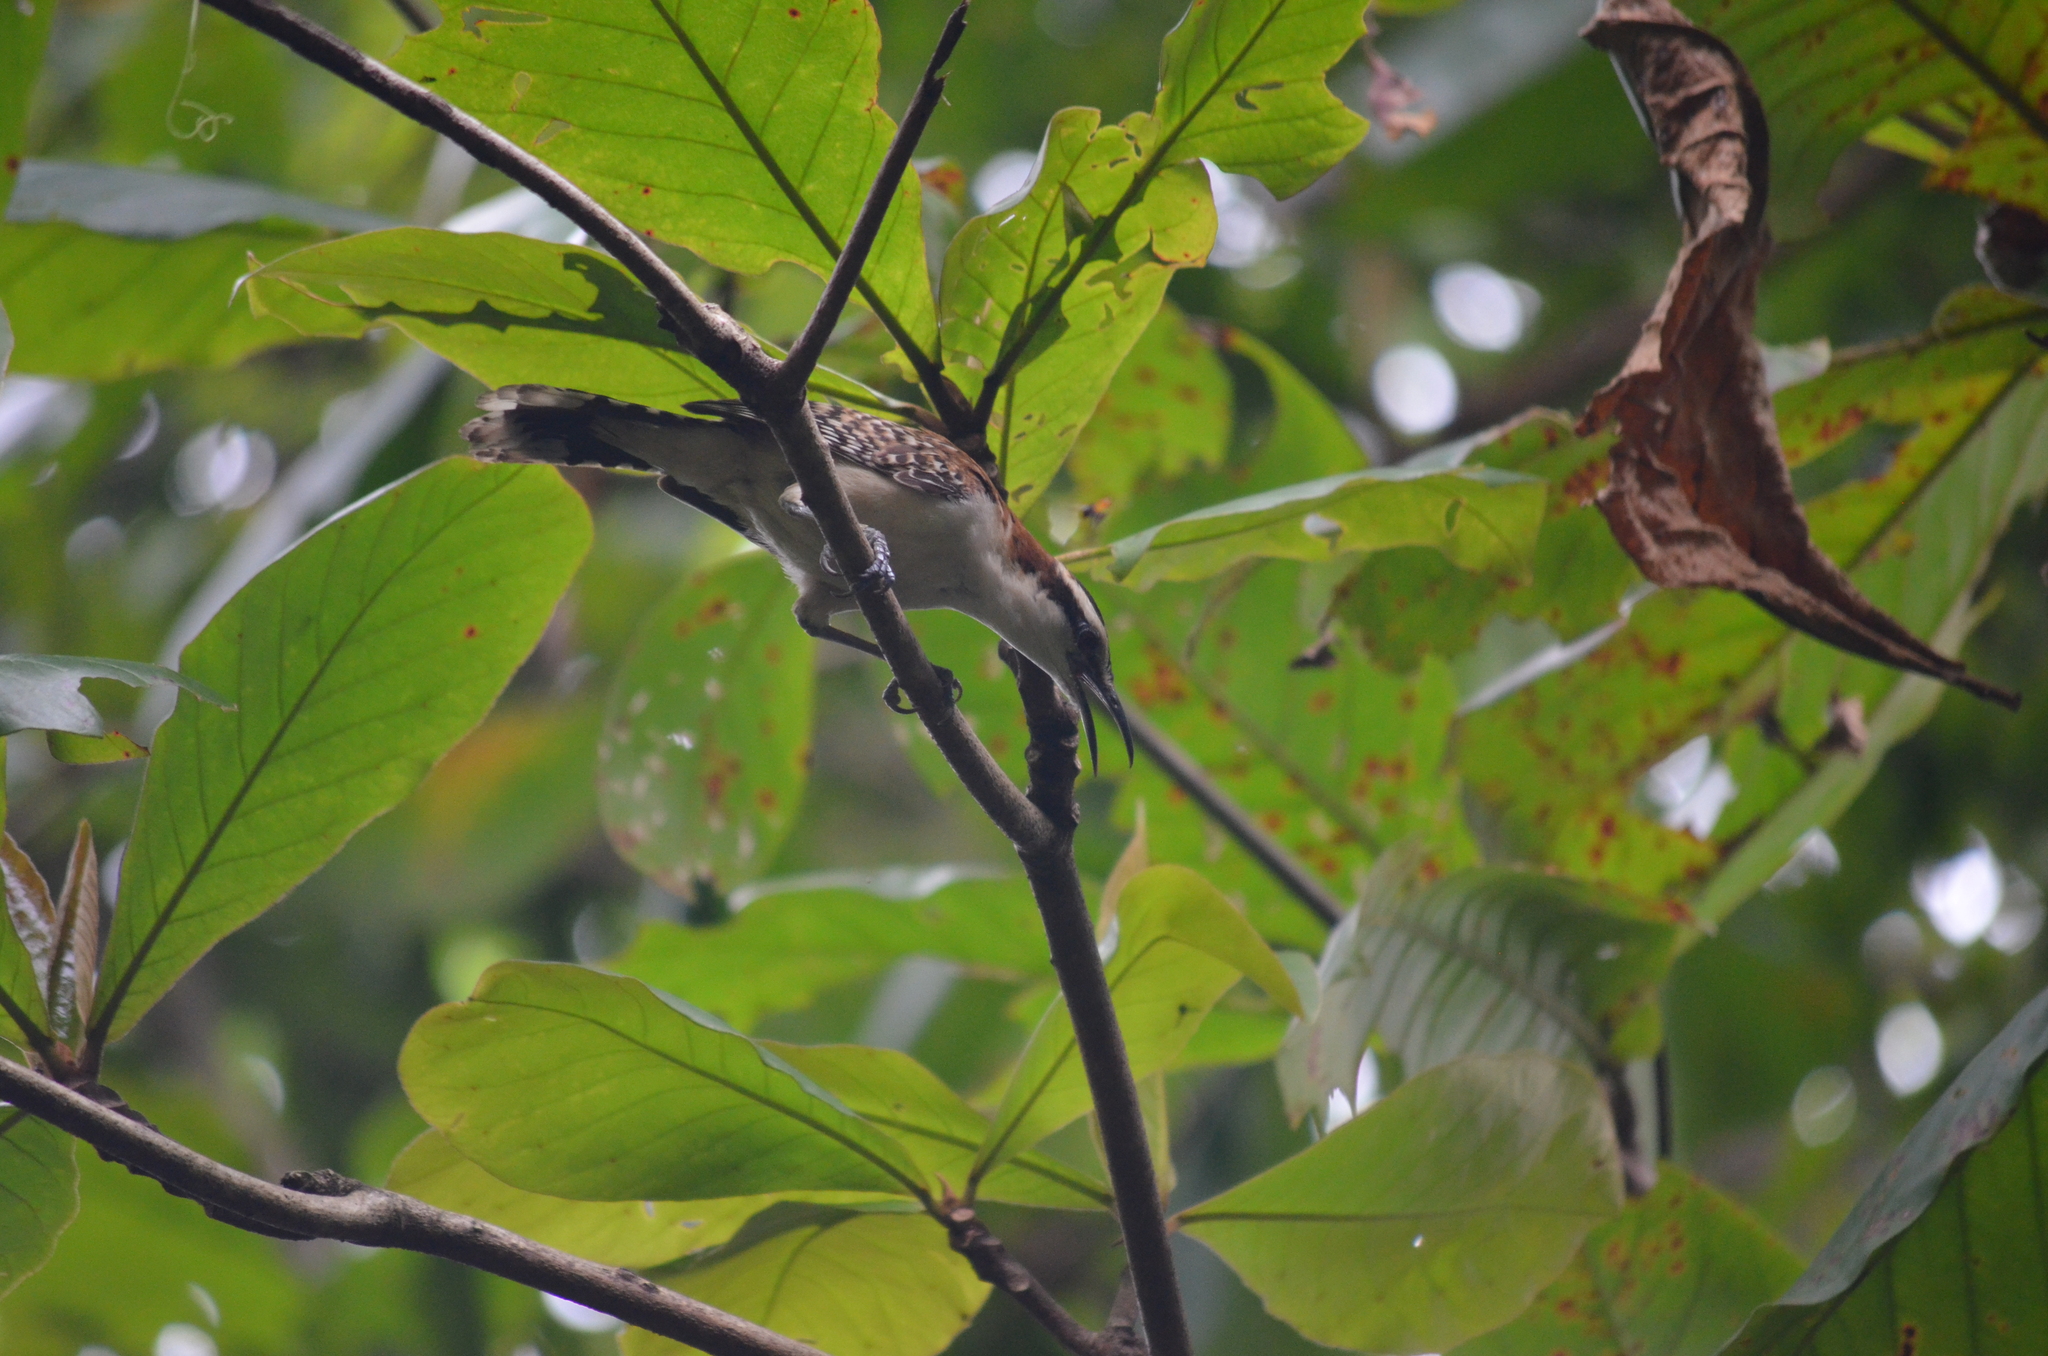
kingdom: Animalia
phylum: Chordata
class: Aves
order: Passeriformes
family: Troglodytidae
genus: Campylorhynchus
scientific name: Campylorhynchus rufinucha
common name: Rufous-naped wren
